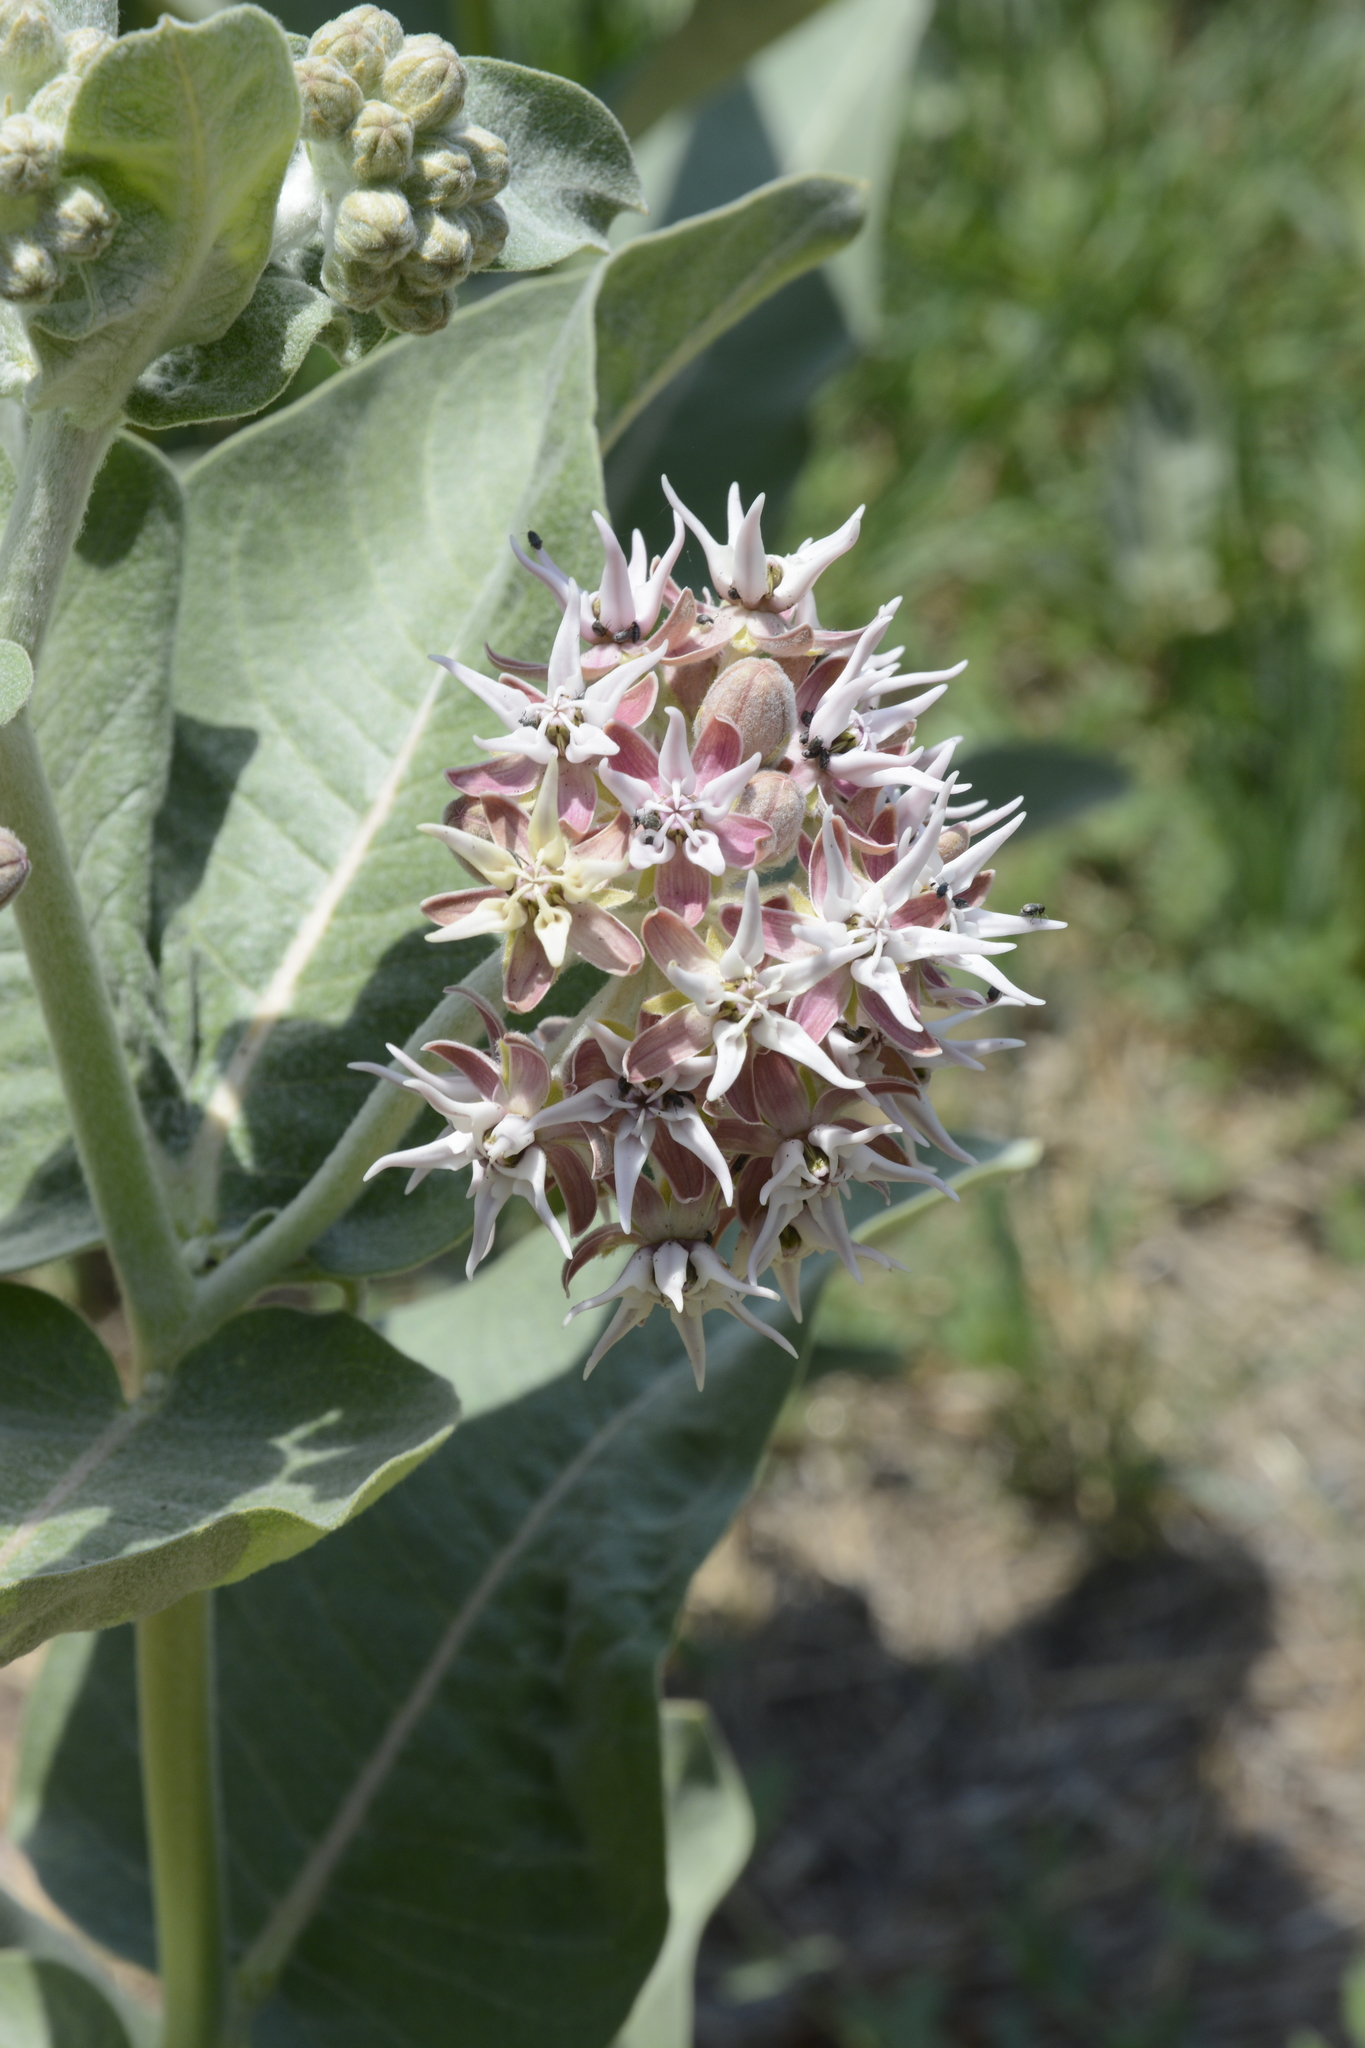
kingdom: Plantae
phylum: Tracheophyta
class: Magnoliopsida
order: Gentianales
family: Apocynaceae
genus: Asclepias
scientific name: Asclepias speciosa
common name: Showy milkweed
